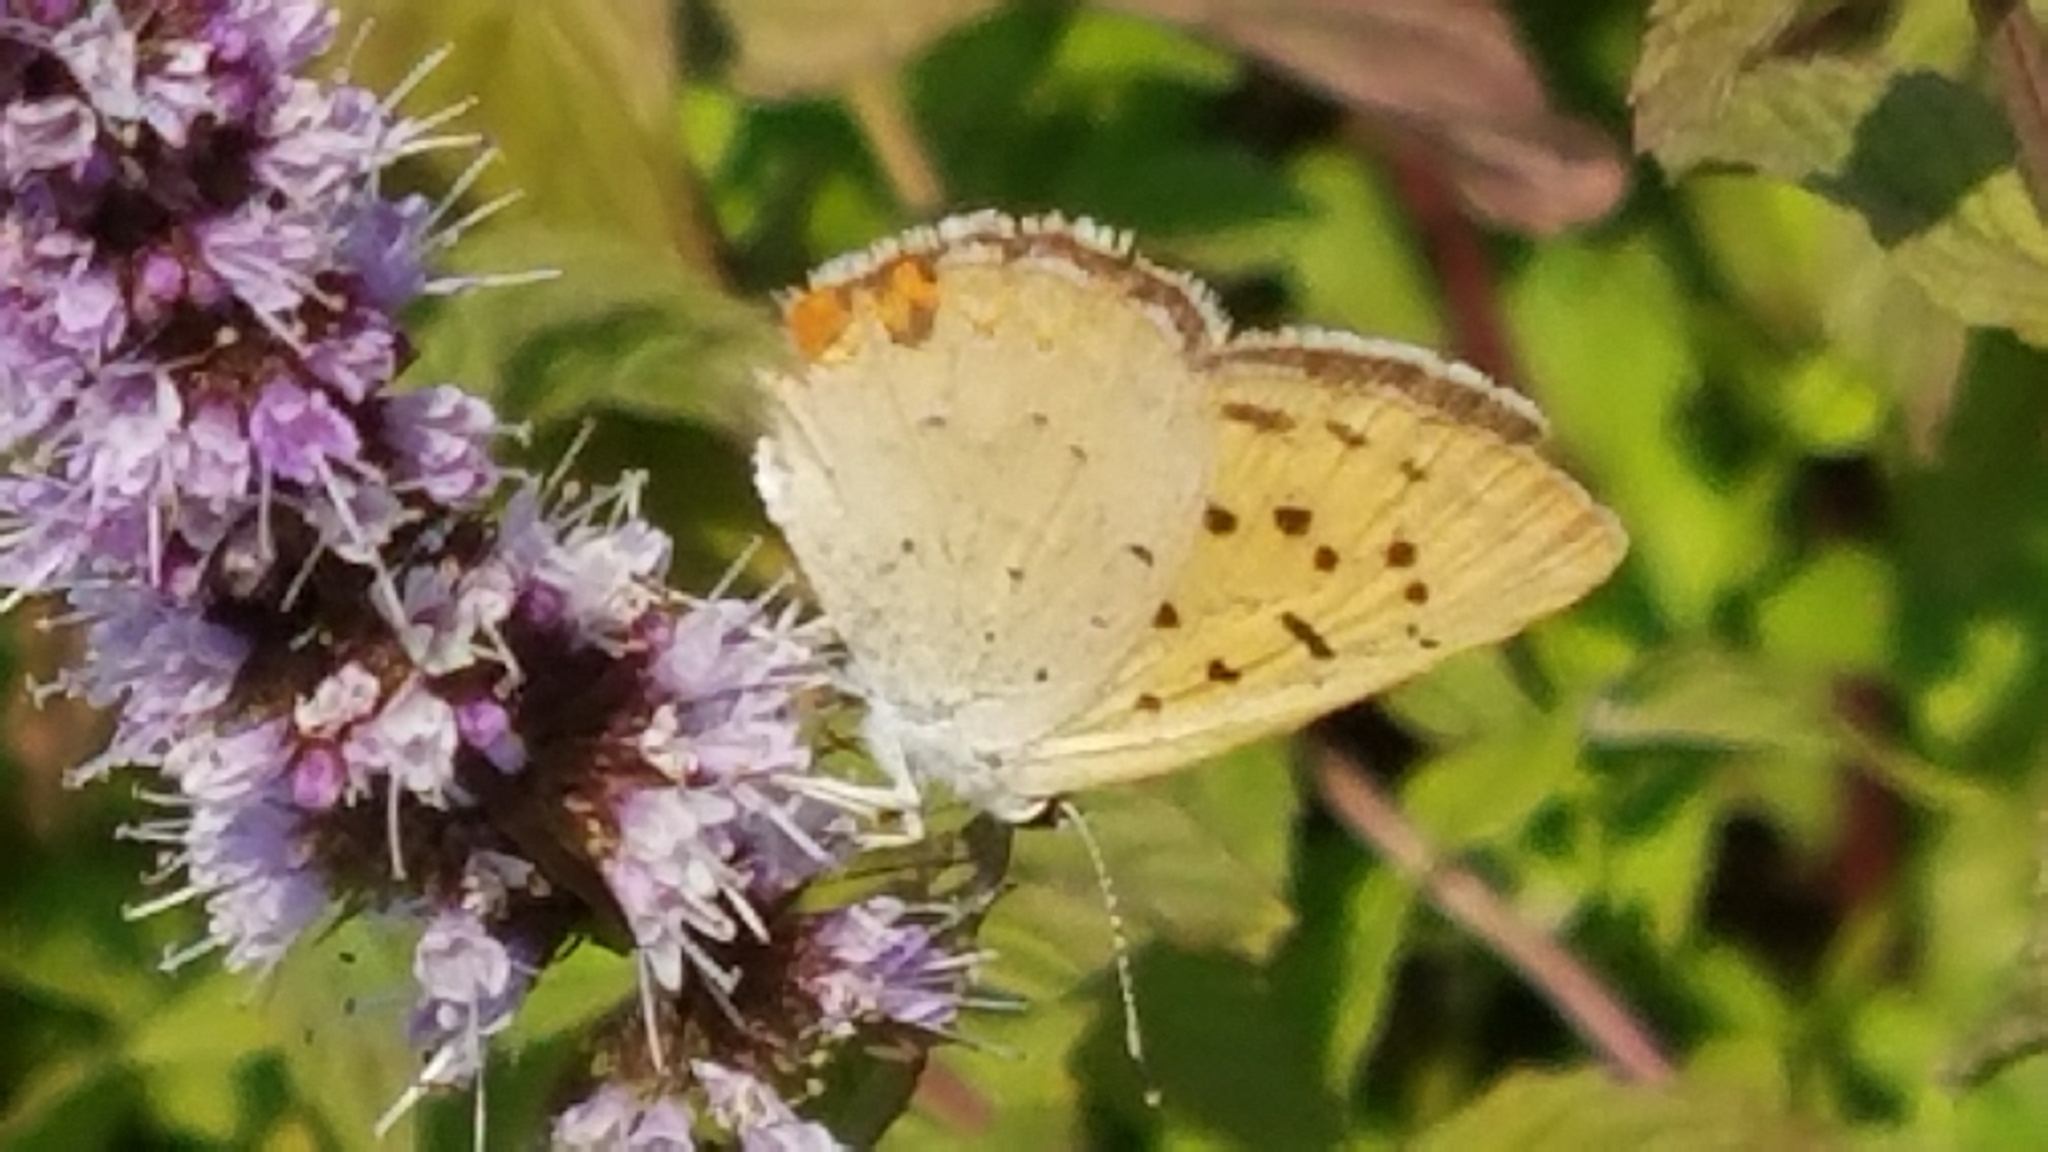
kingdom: Animalia
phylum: Arthropoda
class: Insecta
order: Lepidoptera
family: Lycaenidae
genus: Tharsalea
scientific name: Tharsalea helloides
